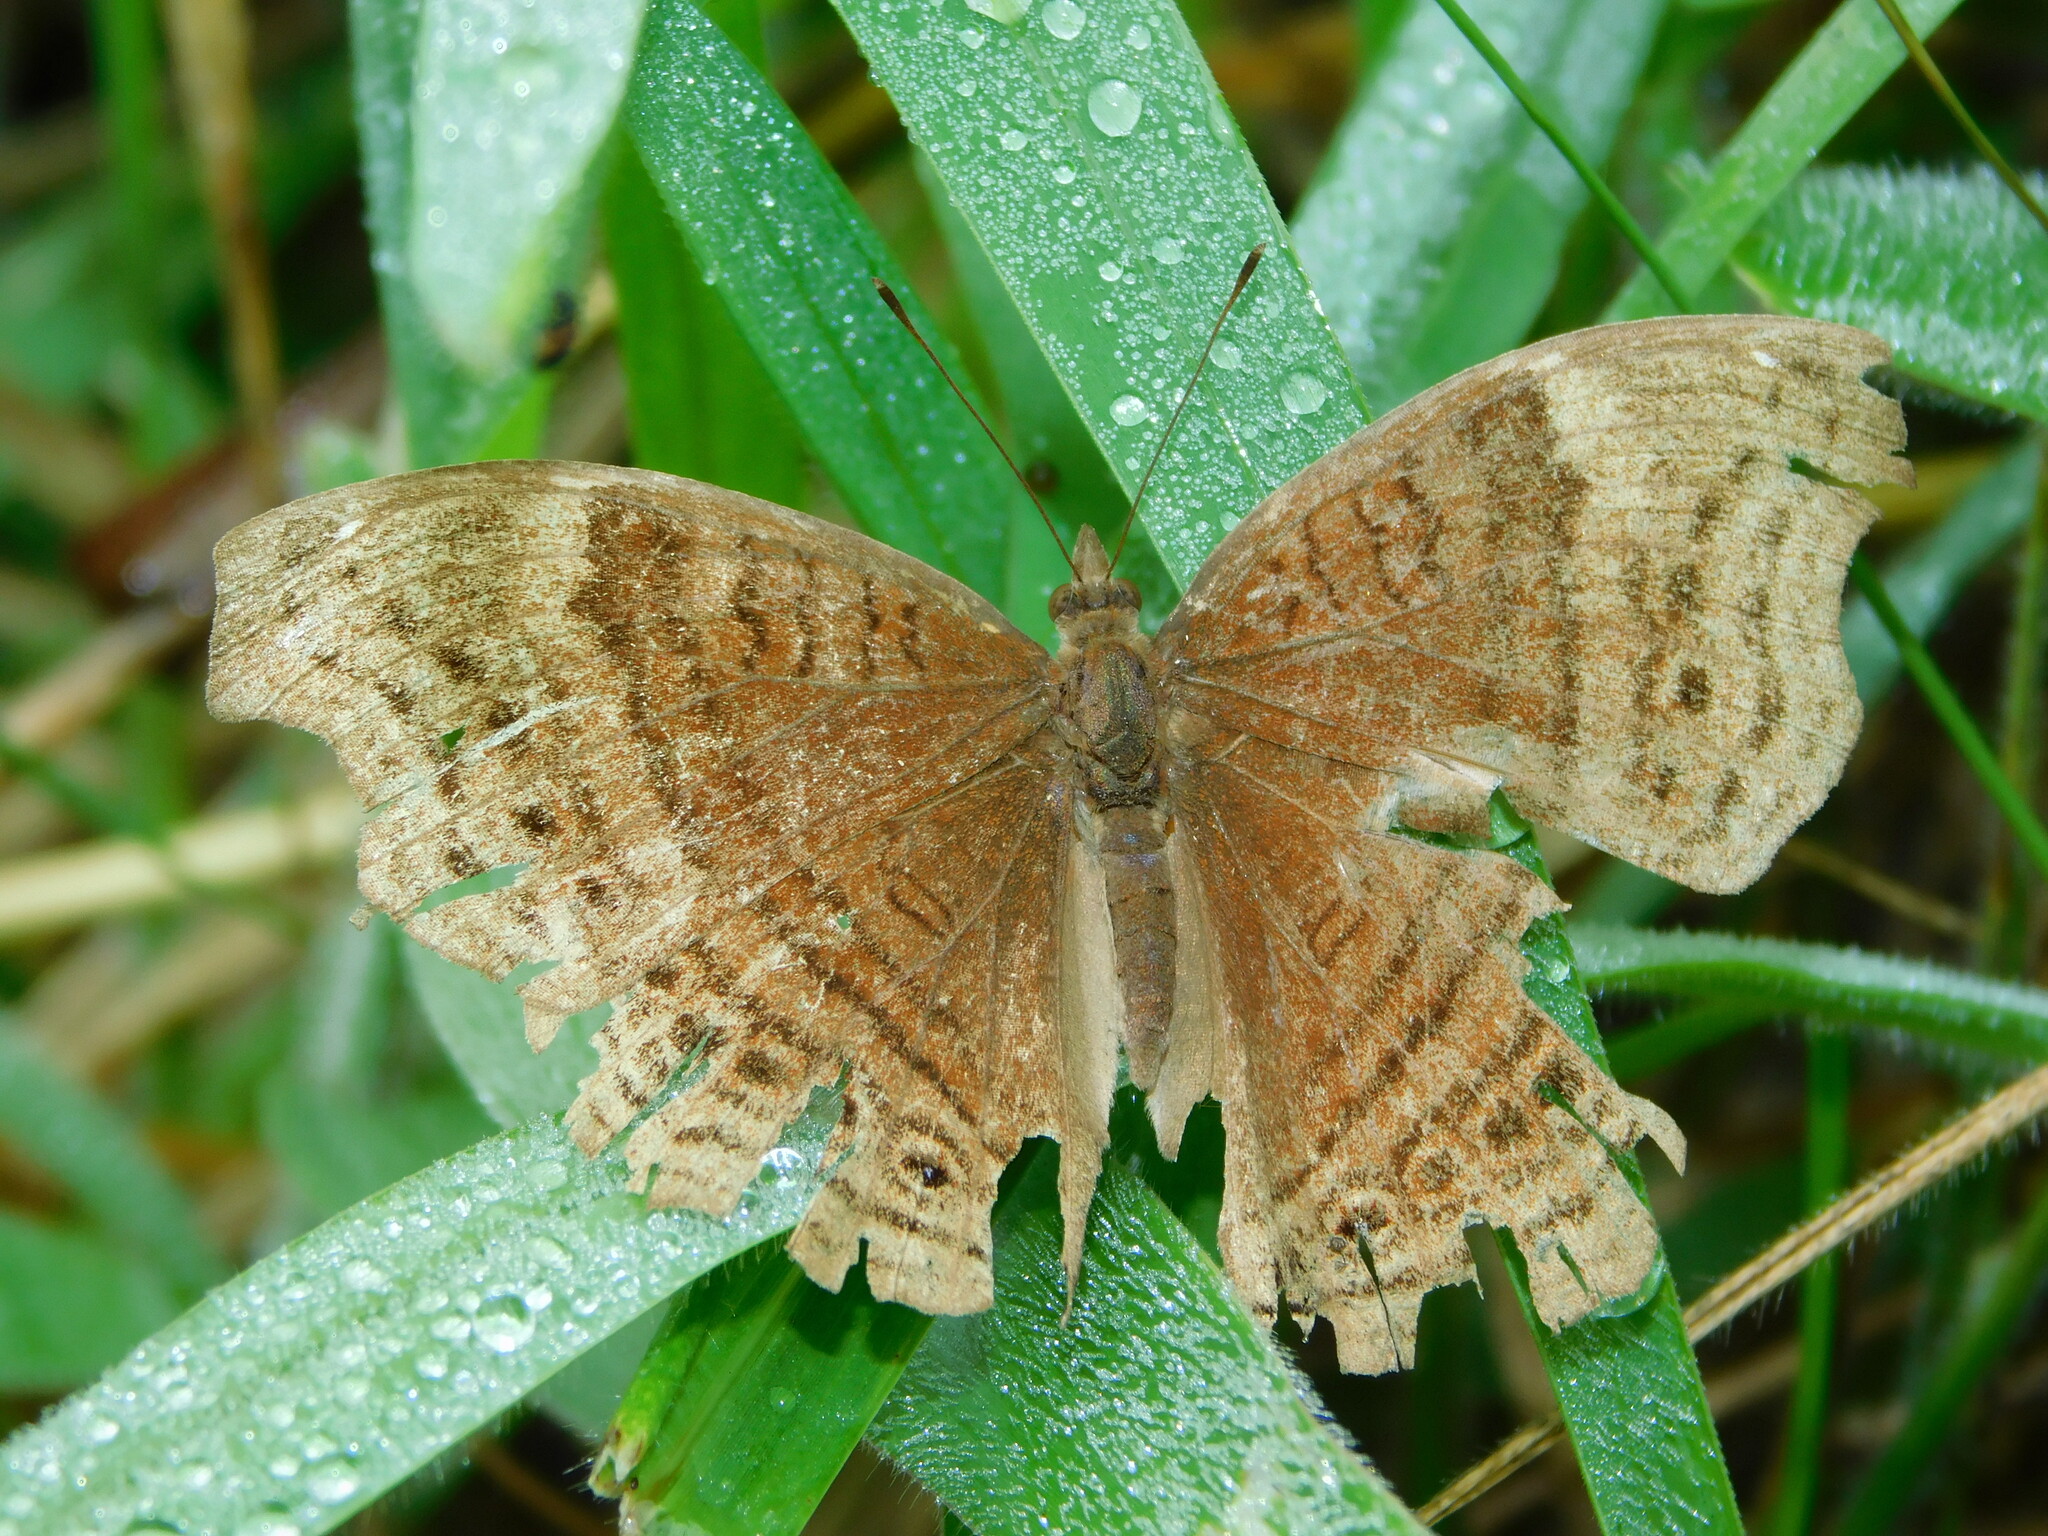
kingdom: Animalia
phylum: Arthropoda
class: Insecta
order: Lepidoptera
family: Nymphalidae
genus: Junonia
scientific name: Junonia stygia
